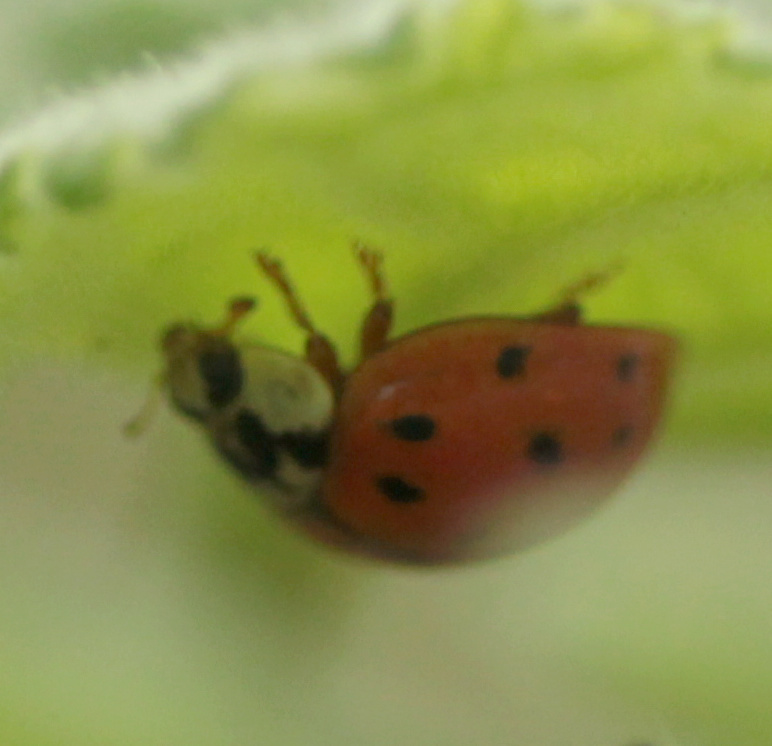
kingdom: Animalia
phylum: Arthropoda
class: Insecta
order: Coleoptera
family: Coccinellidae
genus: Harmonia
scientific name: Harmonia axyridis
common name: Harlequin ladybird
